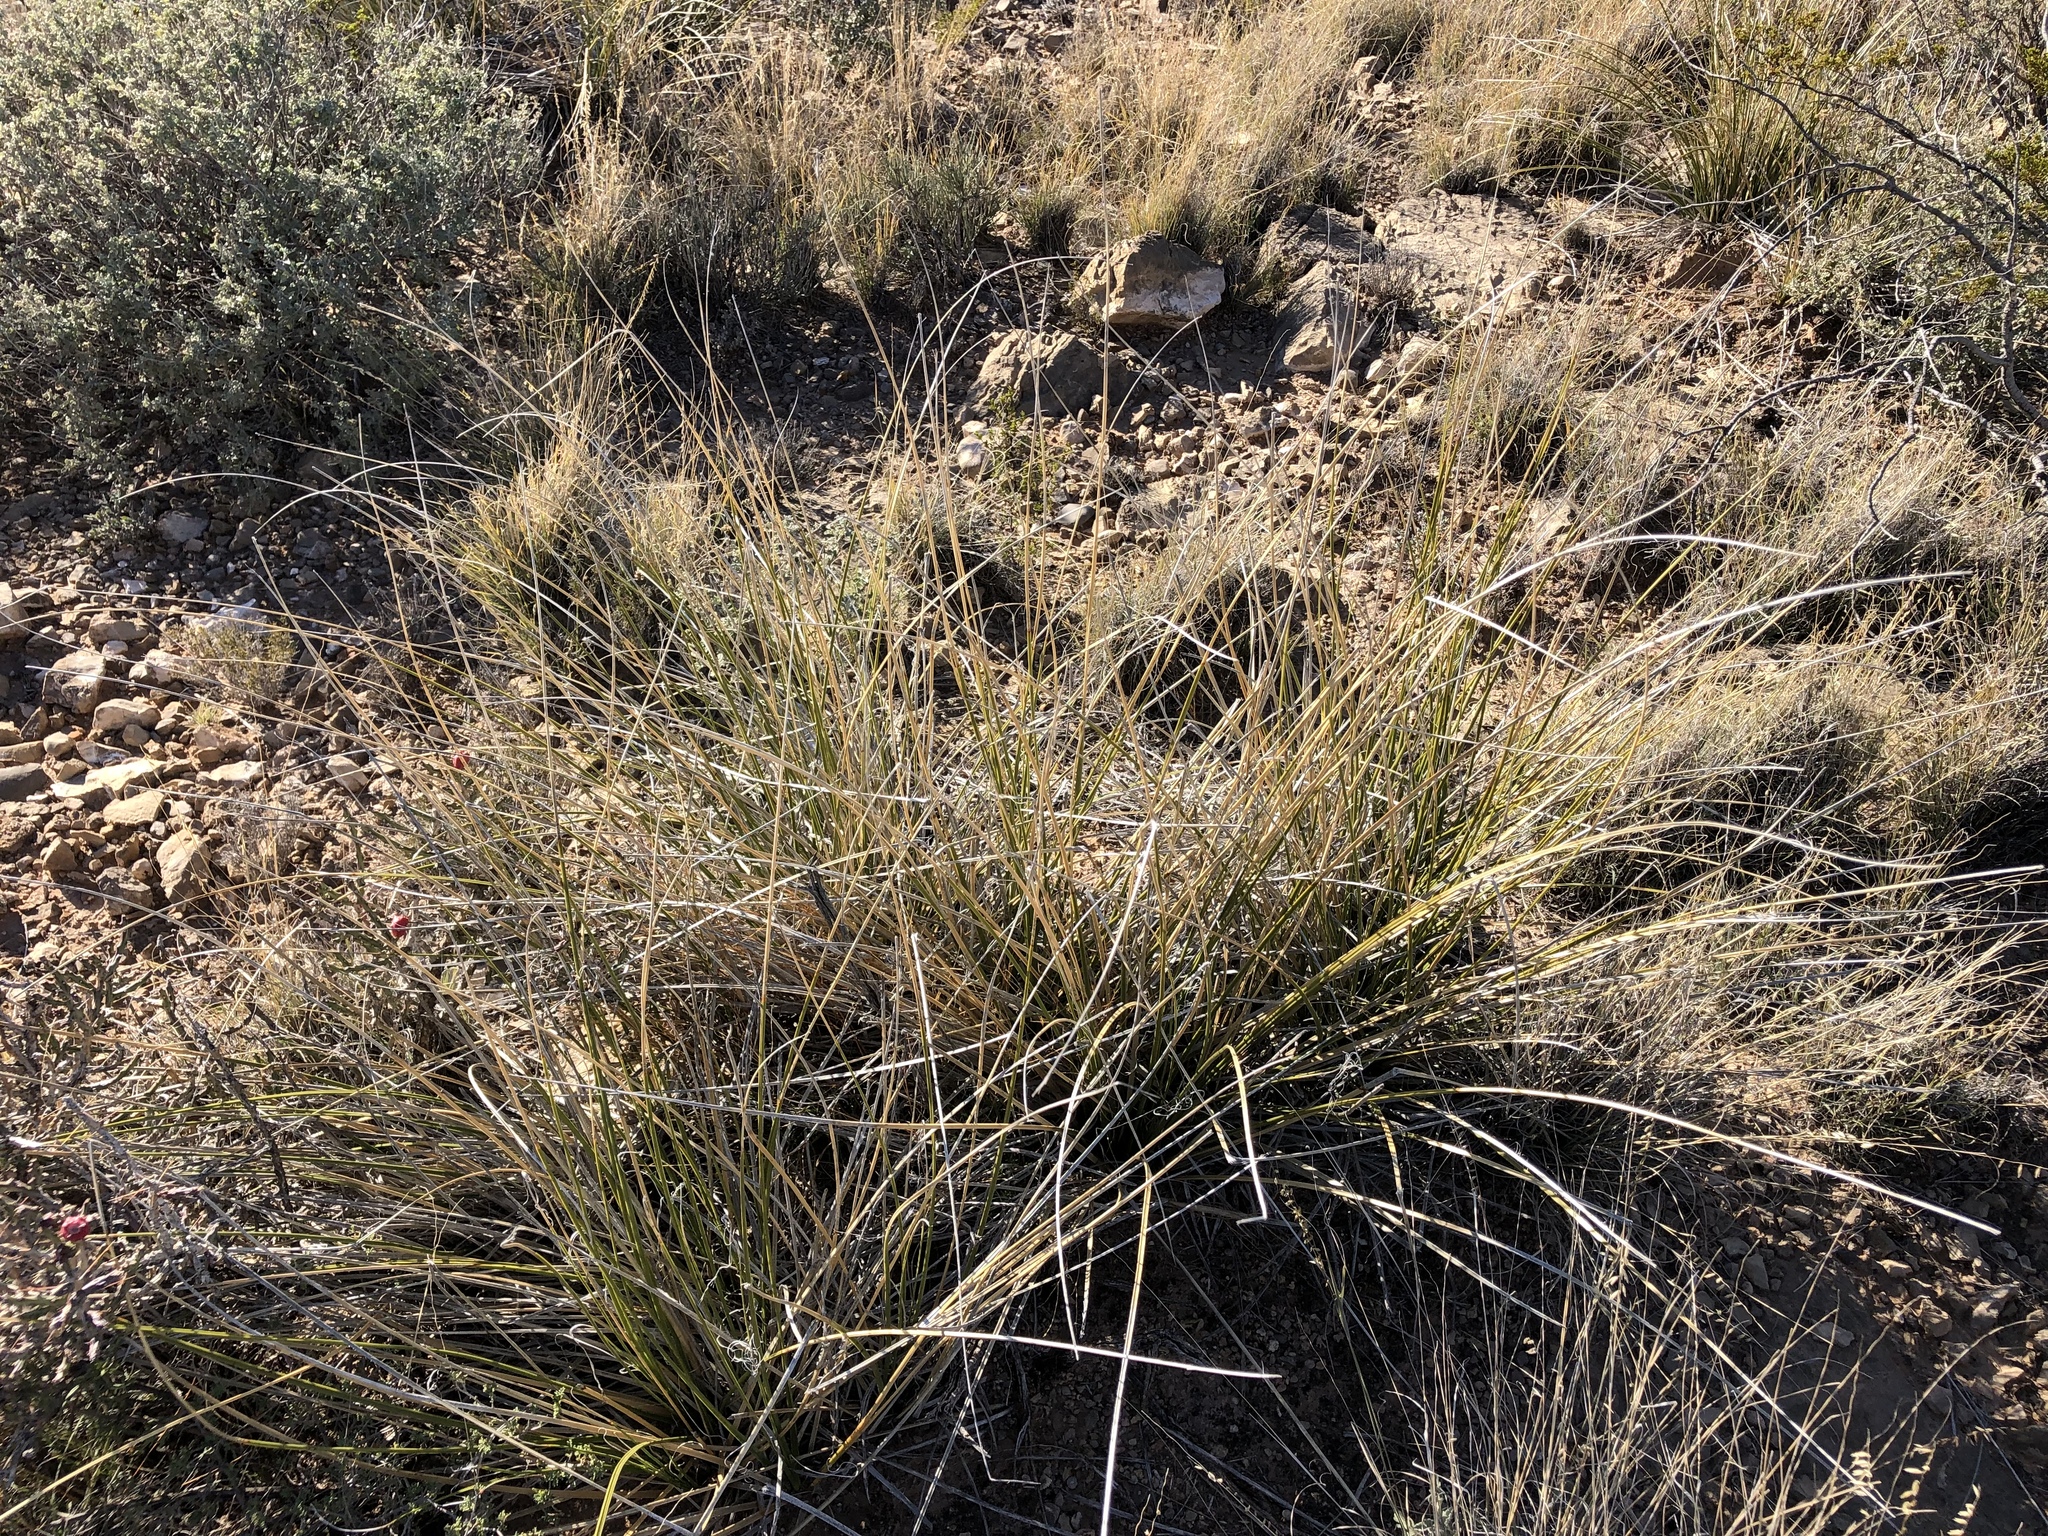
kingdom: Plantae
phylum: Tracheophyta
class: Liliopsida
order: Asparagales
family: Asparagaceae
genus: Nolina
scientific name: Nolina texana
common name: Texas sacahuiste
